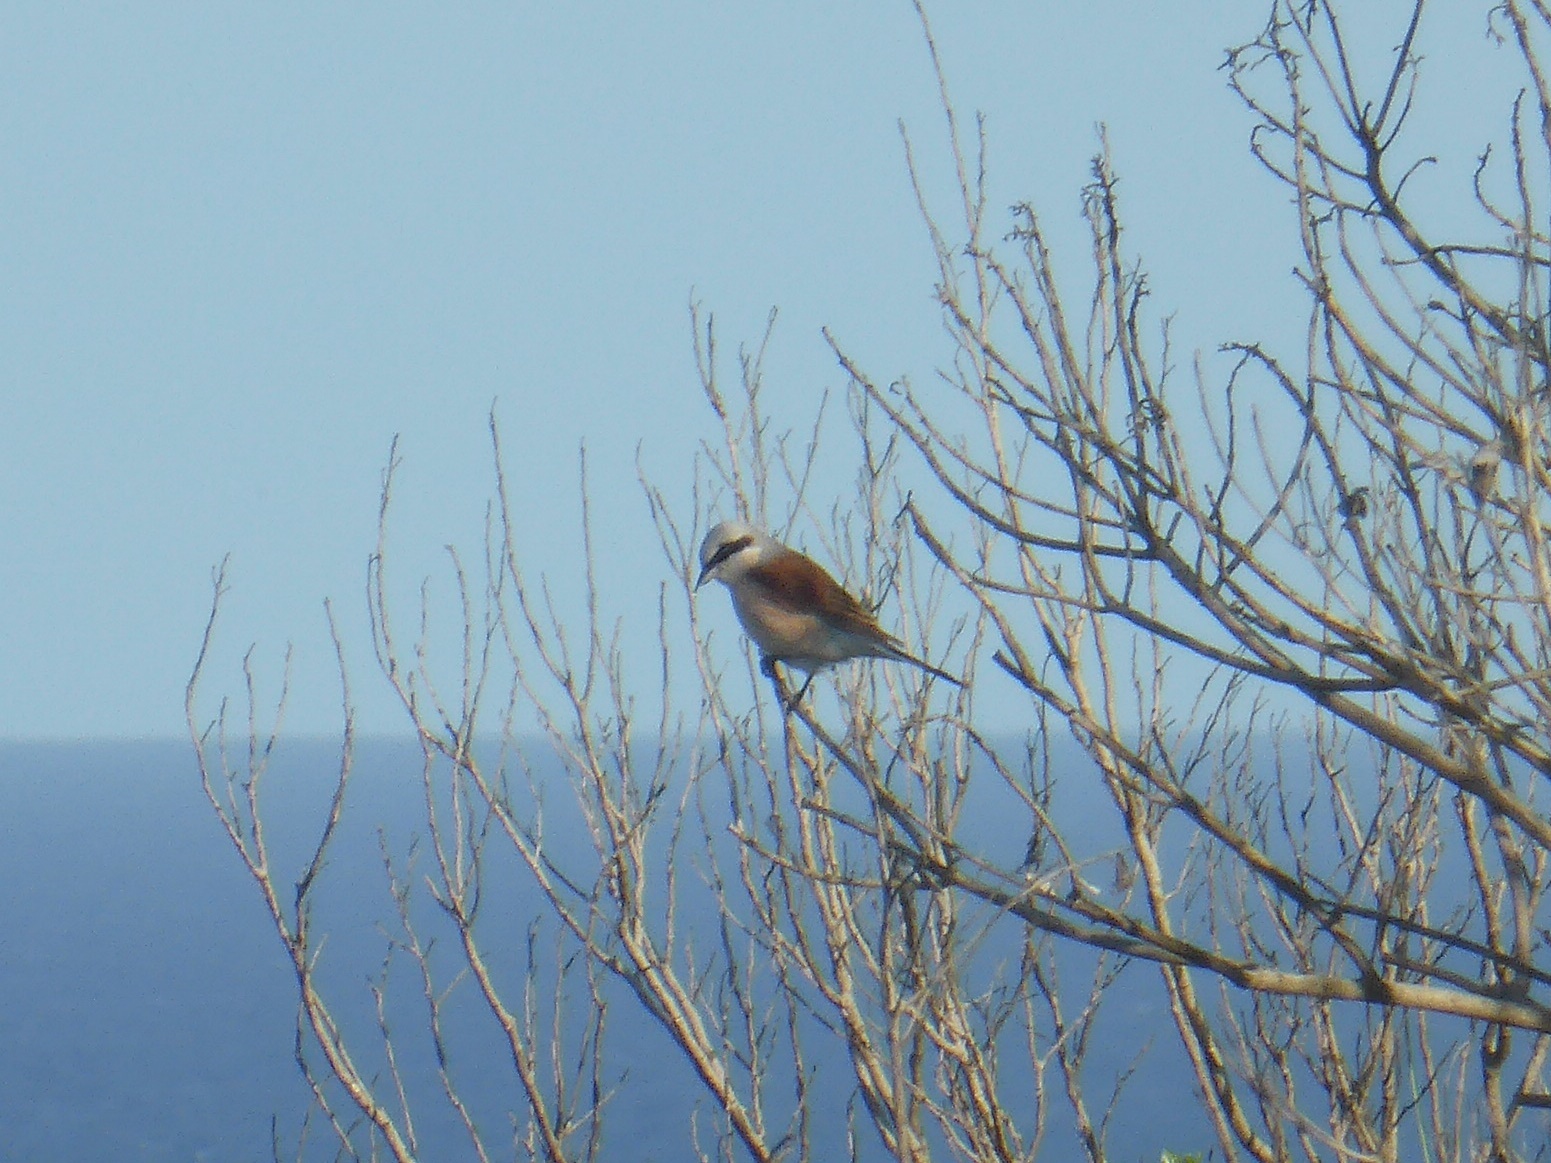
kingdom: Animalia
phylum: Chordata
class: Aves
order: Passeriformes
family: Laniidae
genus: Lanius
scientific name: Lanius collurio
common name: Red-backed shrike
